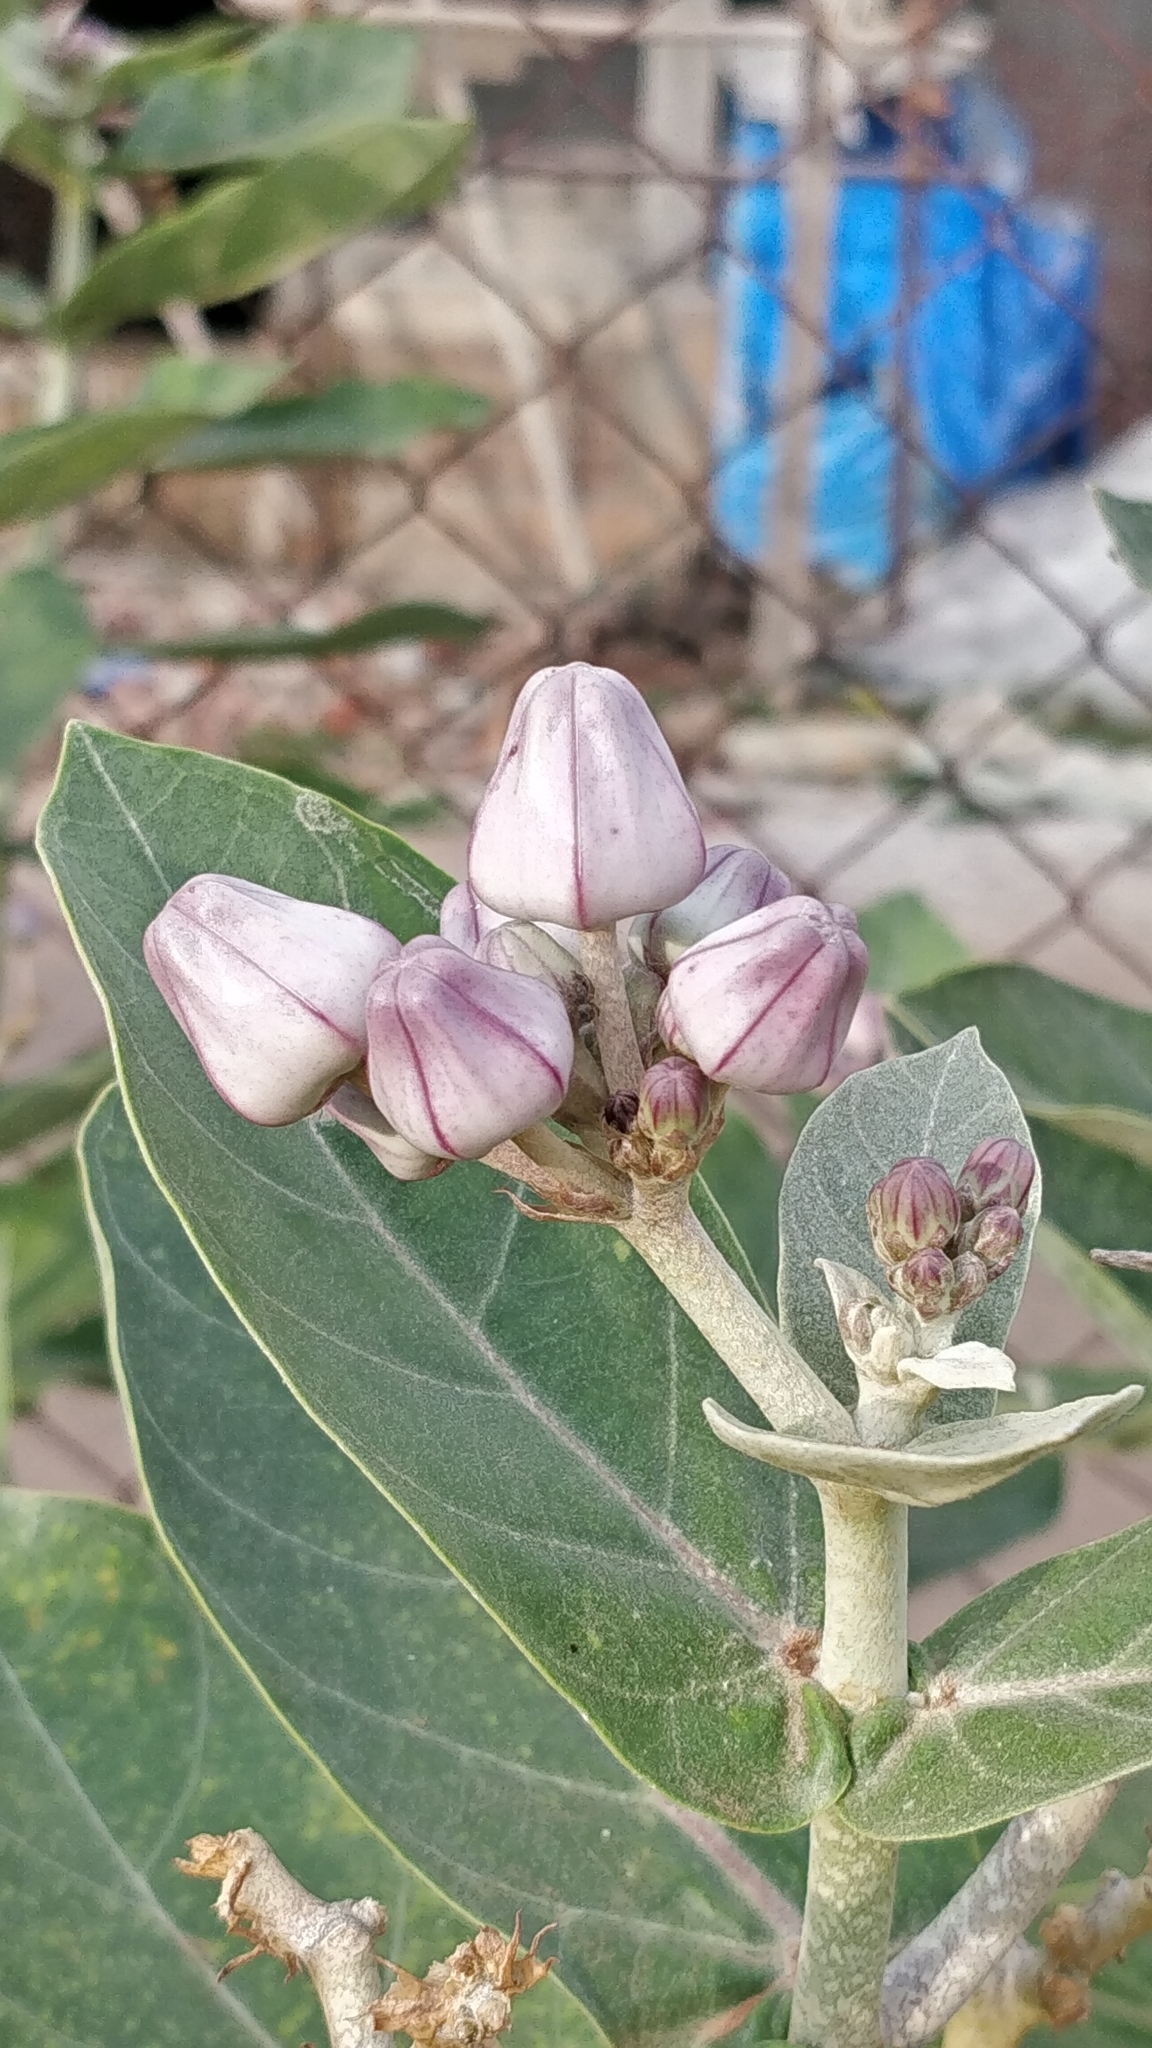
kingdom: Plantae
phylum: Tracheophyta
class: Magnoliopsida
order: Gentianales
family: Apocynaceae
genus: Calotropis
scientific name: Calotropis gigantea
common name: Crown flower
